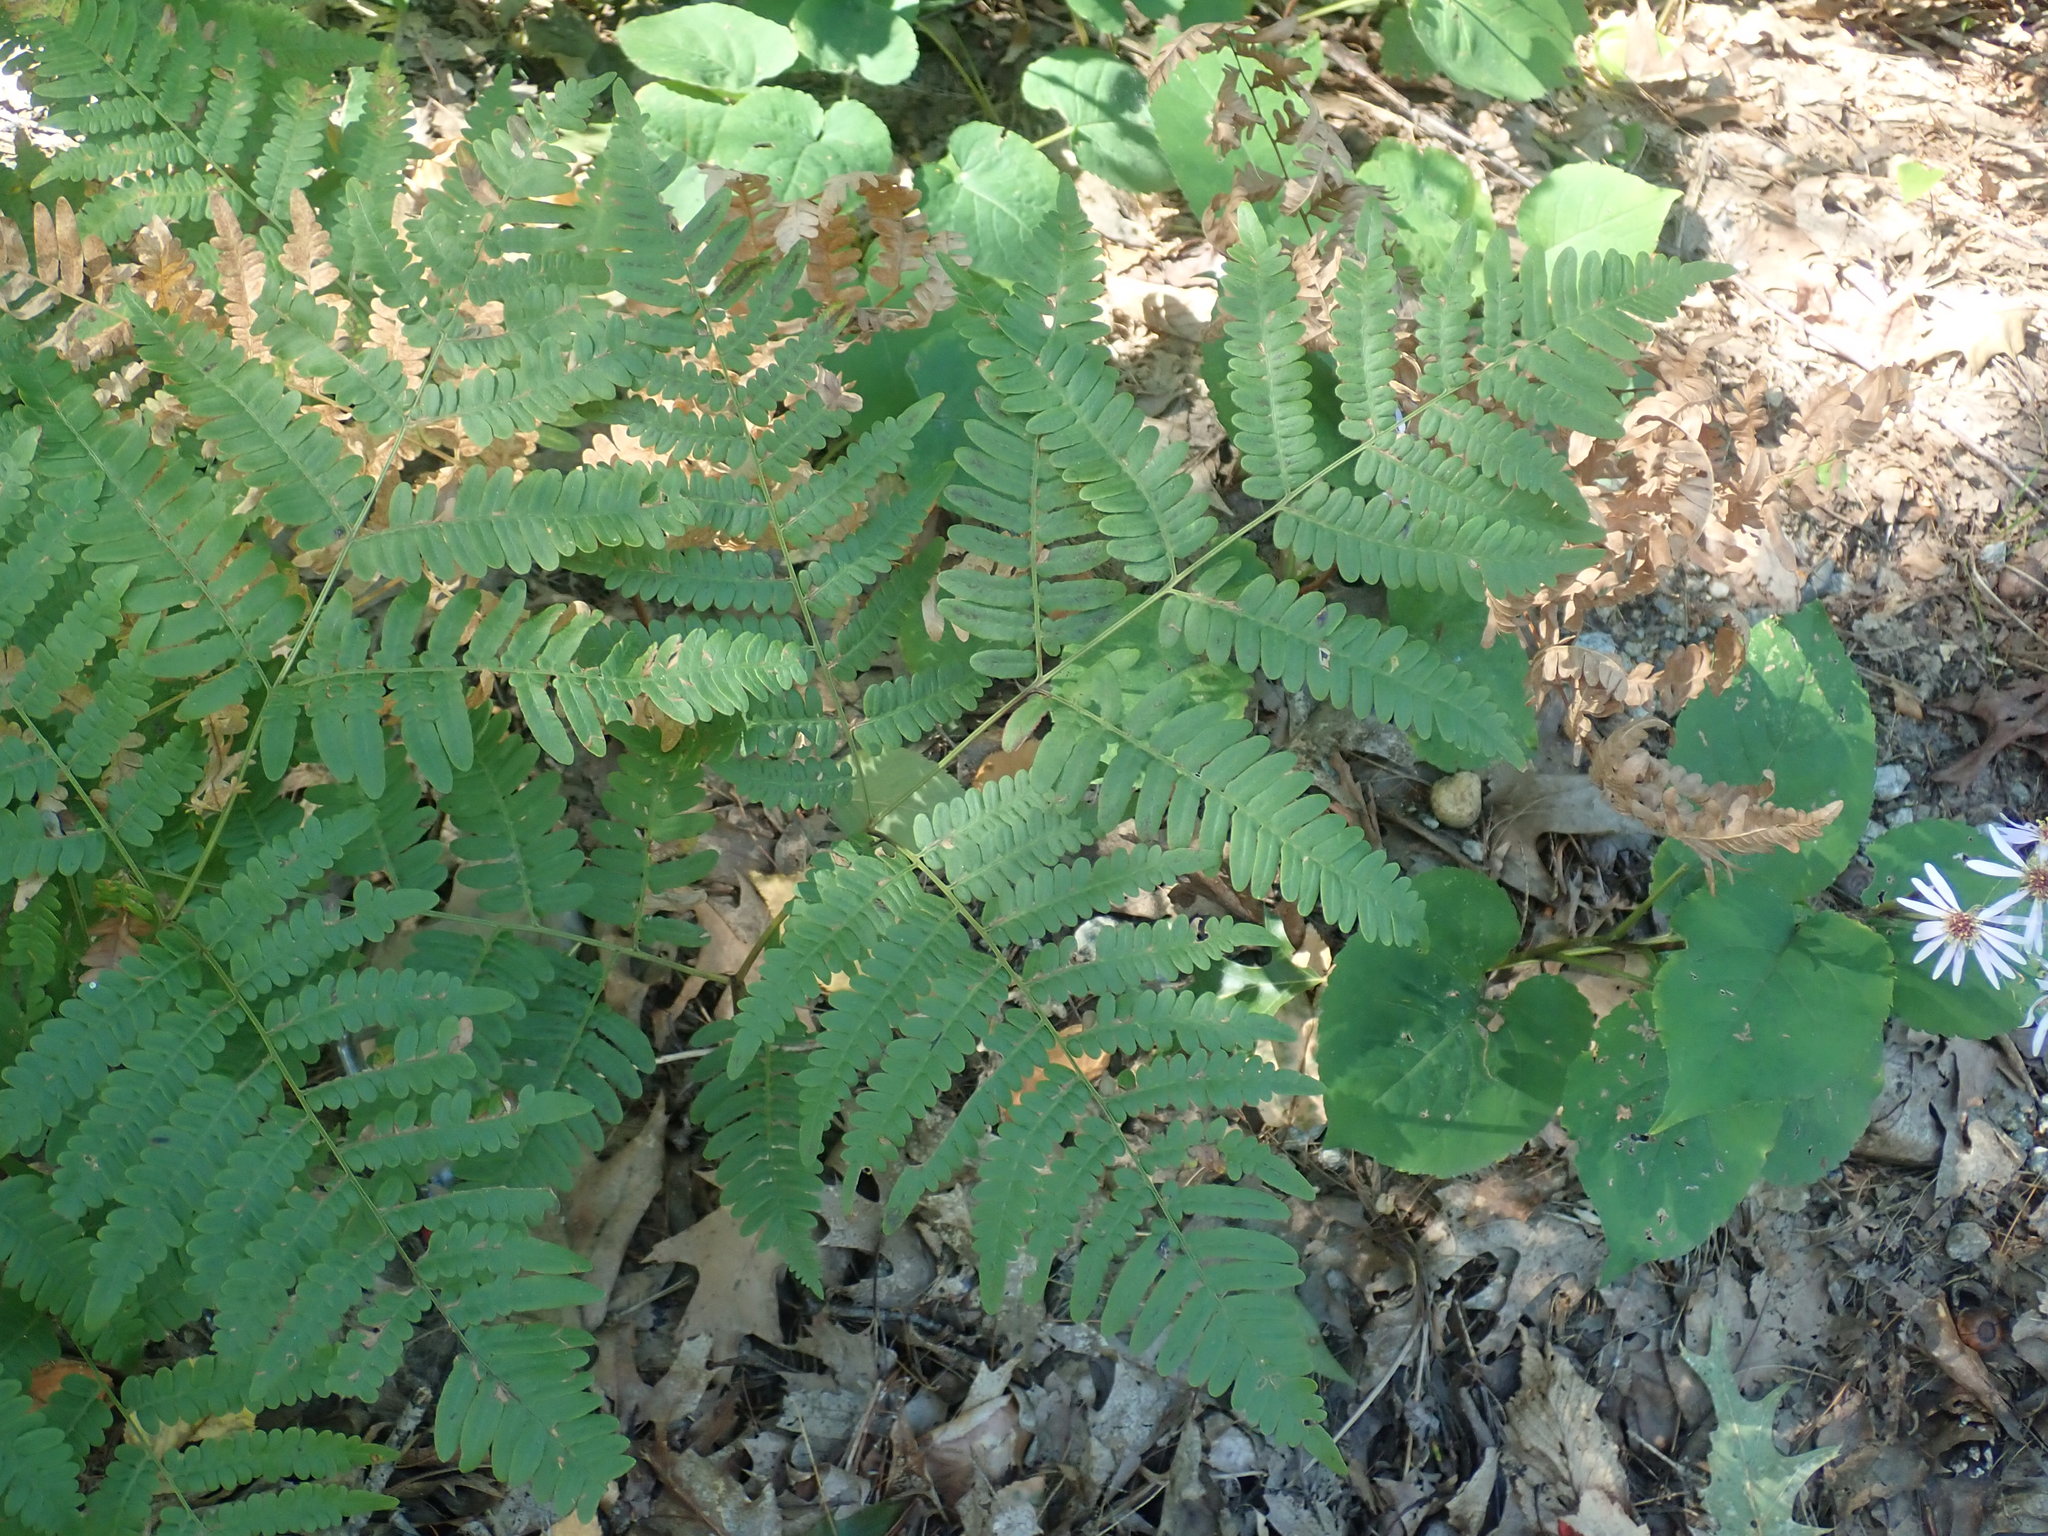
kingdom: Plantae
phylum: Tracheophyta
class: Polypodiopsida
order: Polypodiales
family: Dennstaedtiaceae
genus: Pteridium
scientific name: Pteridium aquilinum
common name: Bracken
